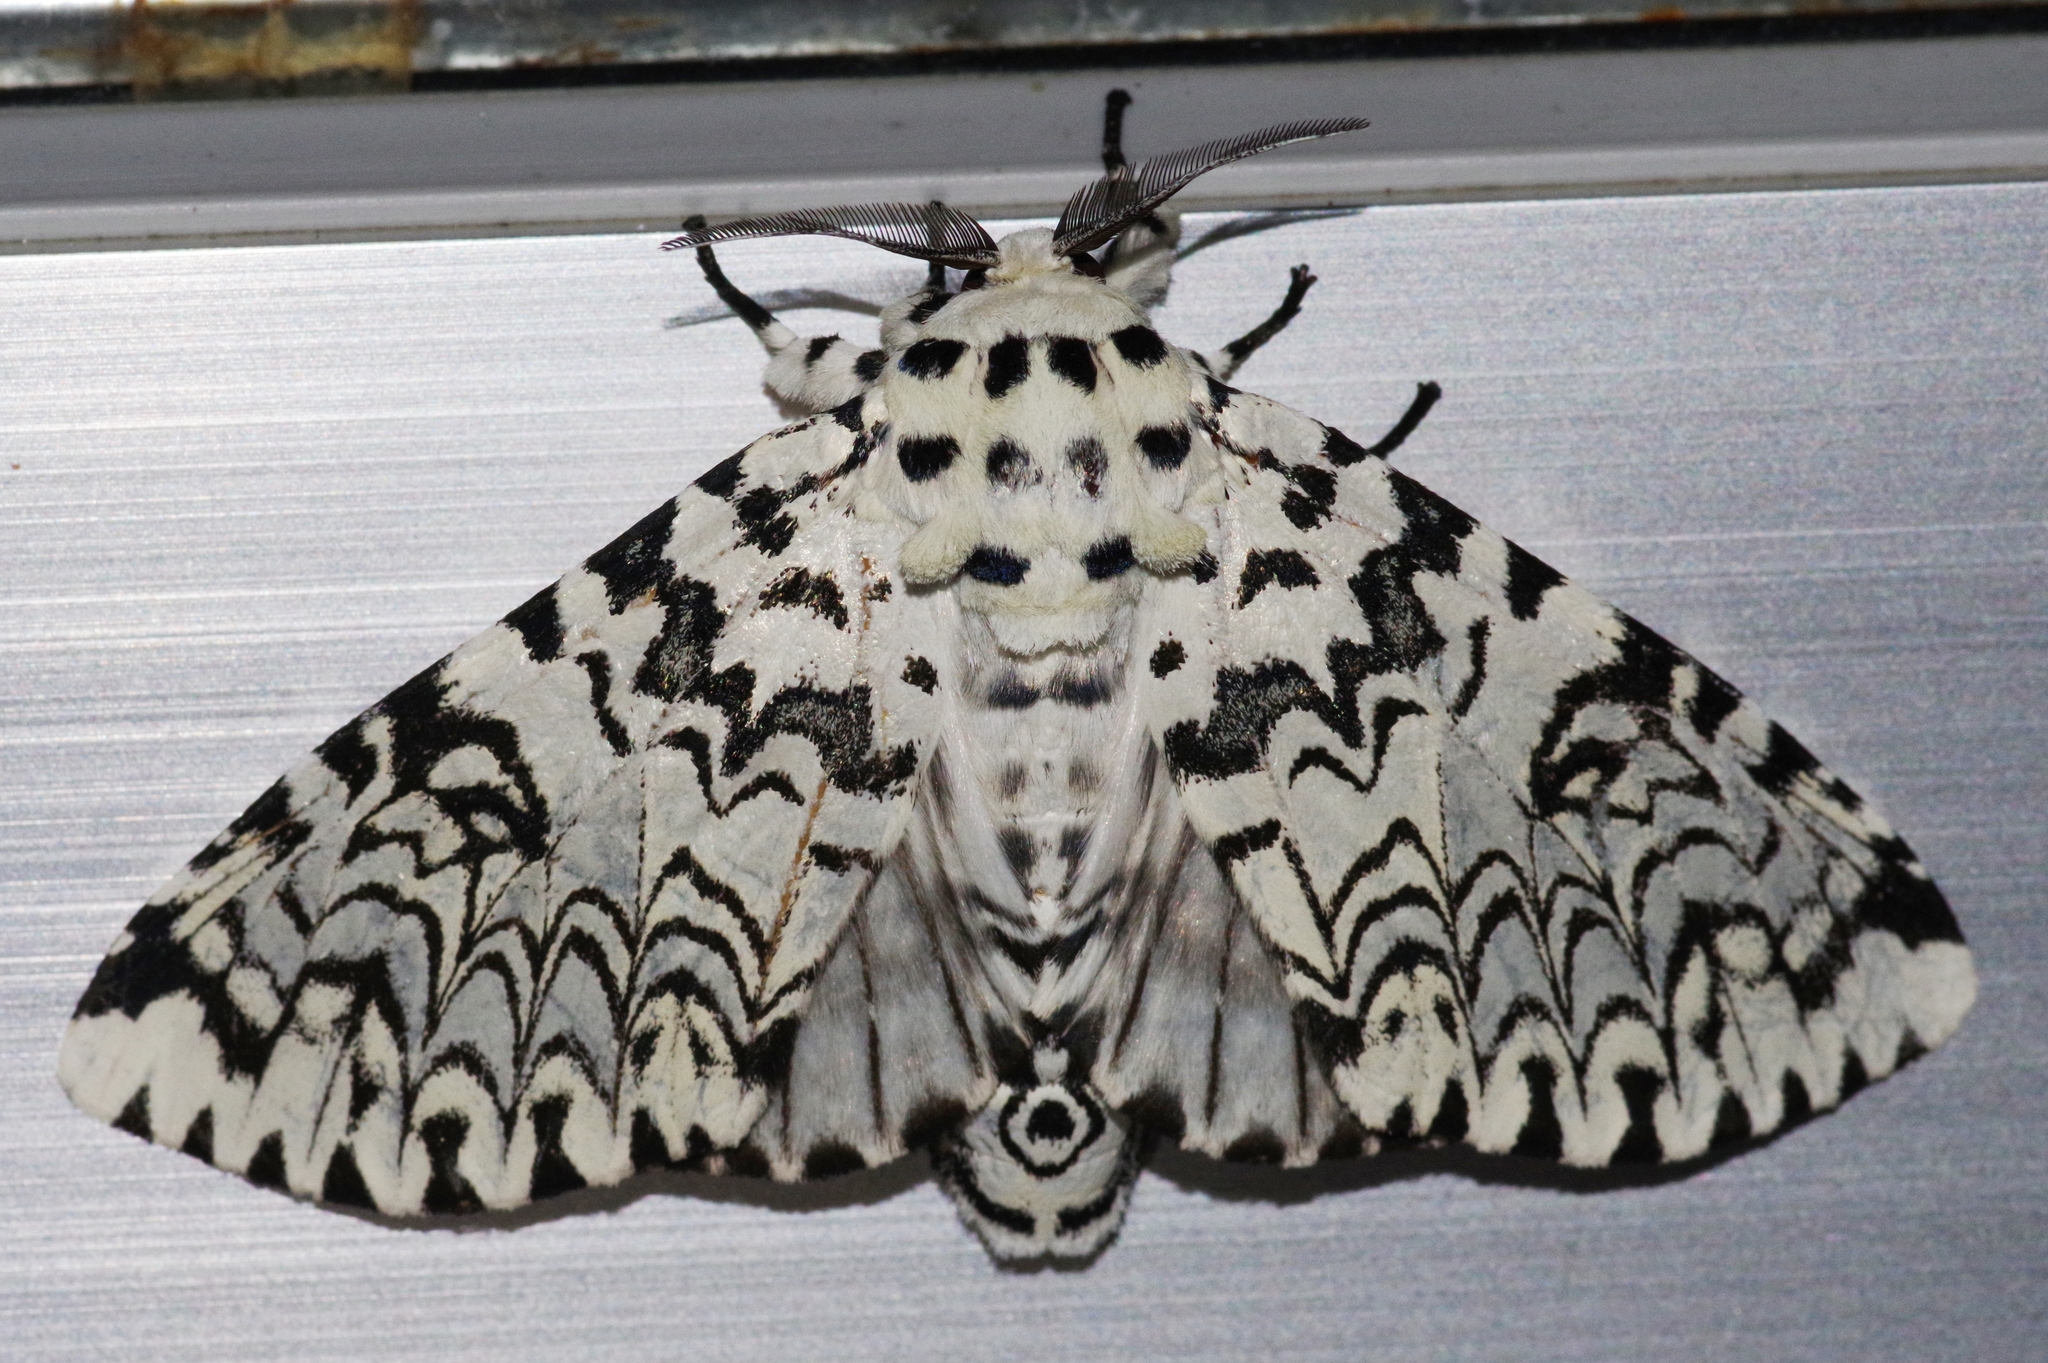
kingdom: Animalia
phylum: Arthropoda
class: Insecta
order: Lepidoptera
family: Notodontidae
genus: Kamalia
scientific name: Kamalia tattakana
